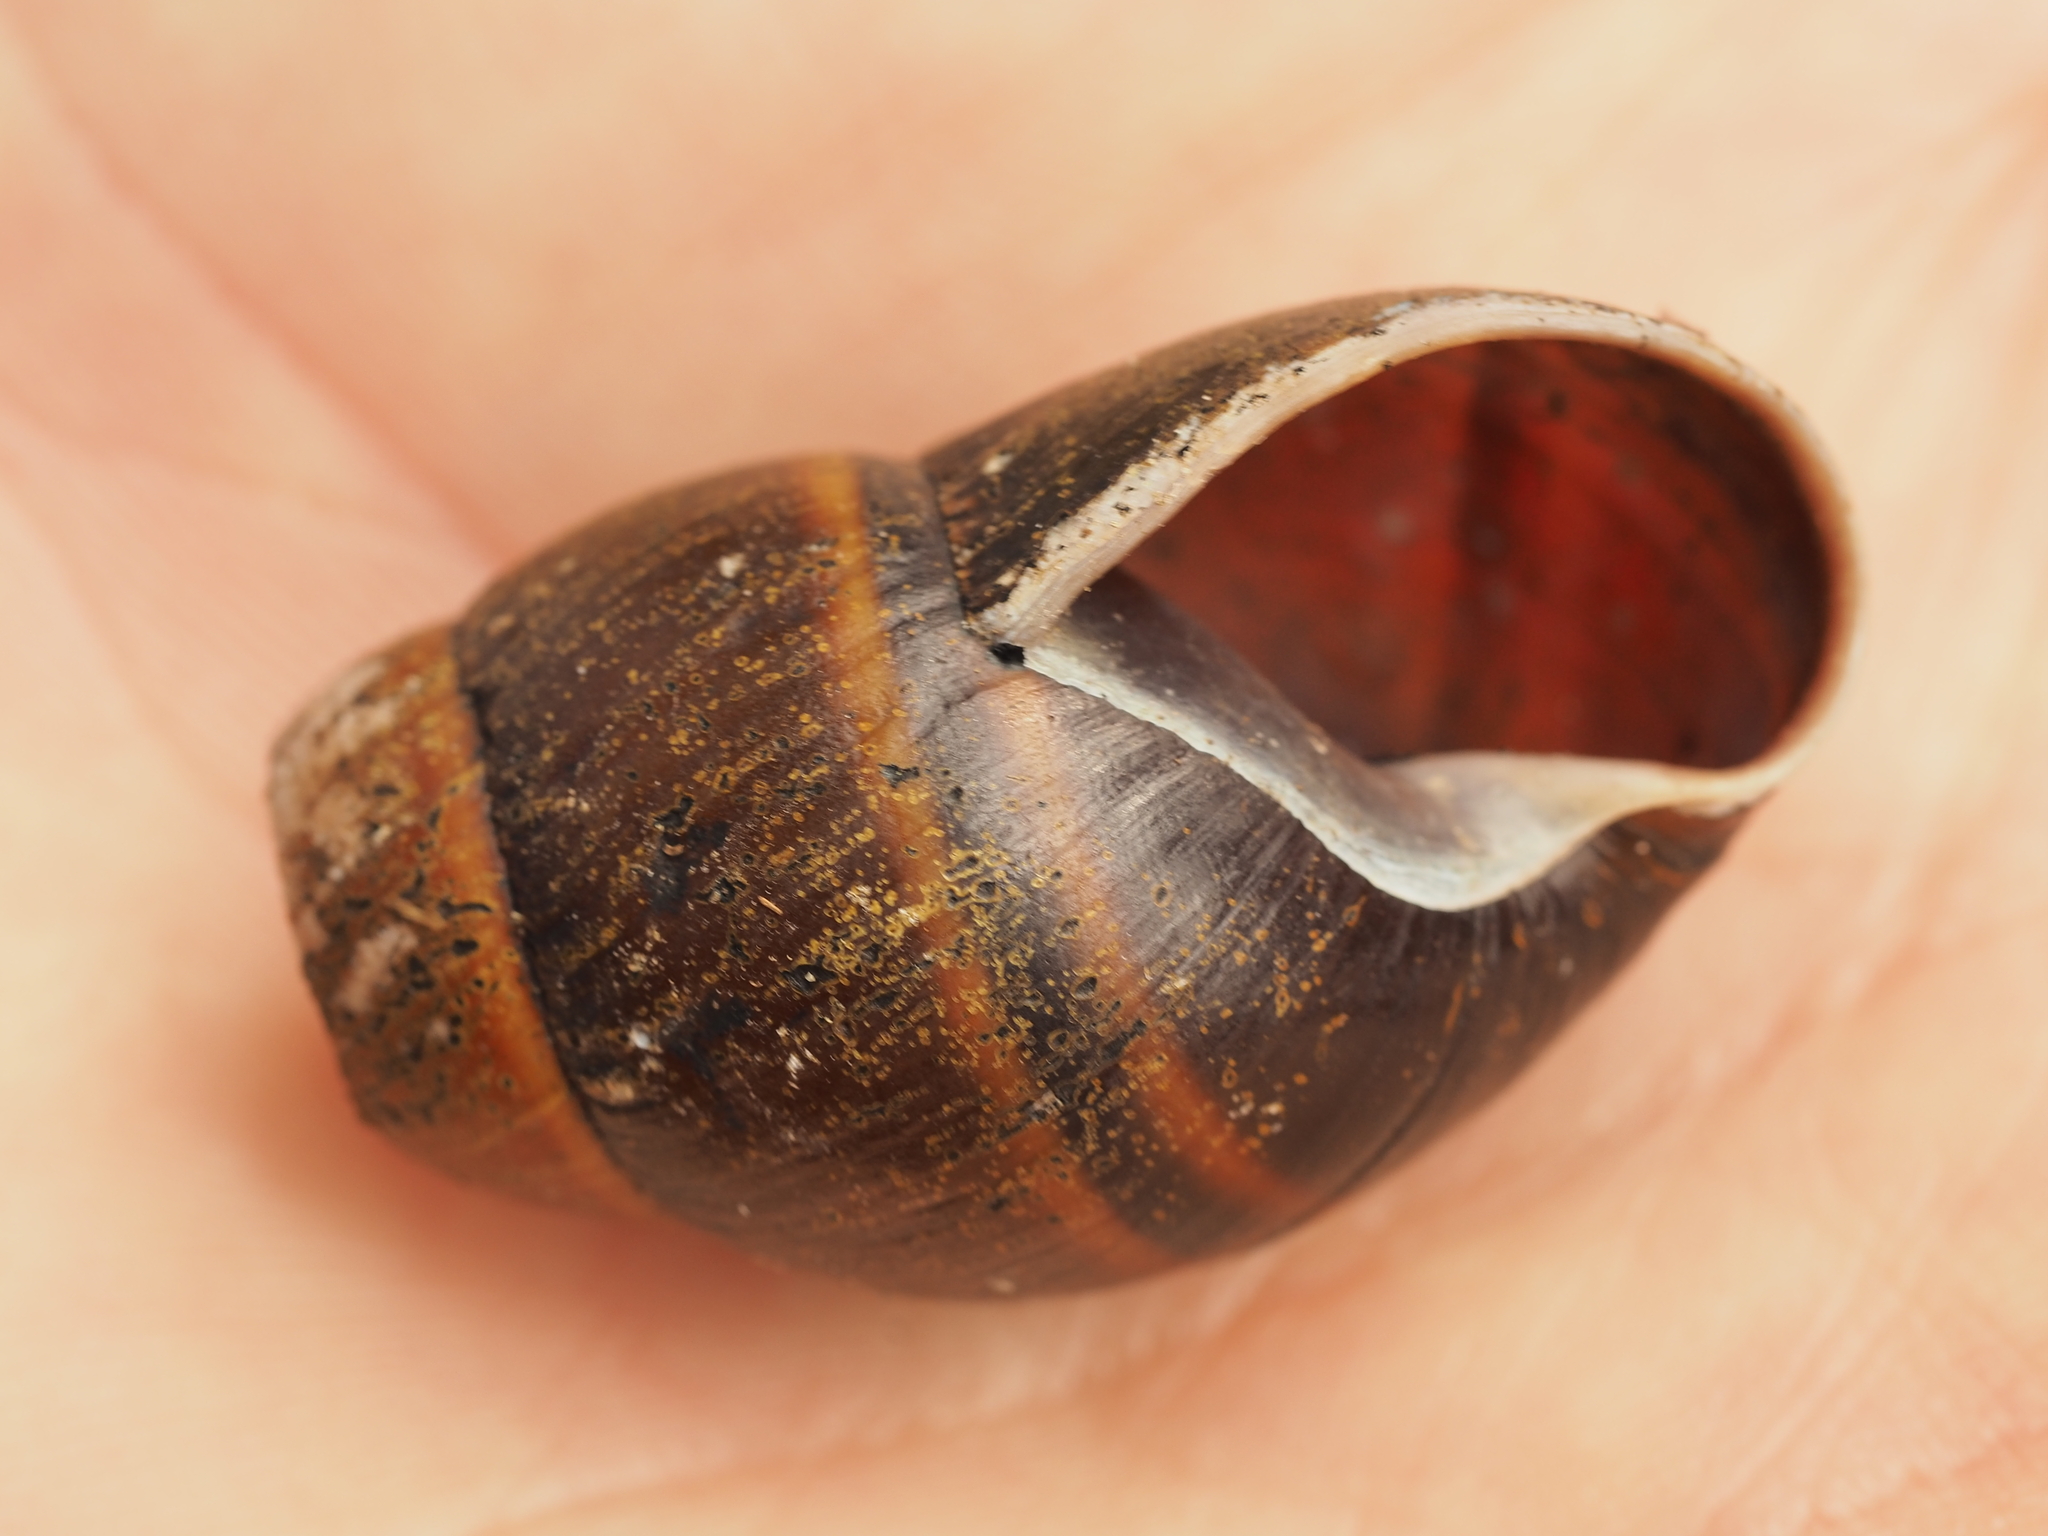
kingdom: Animalia
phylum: Mollusca
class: Gastropoda
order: Stylommatophora
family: Caryodidae
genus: Caryodes
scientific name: Caryodes dufresnii
